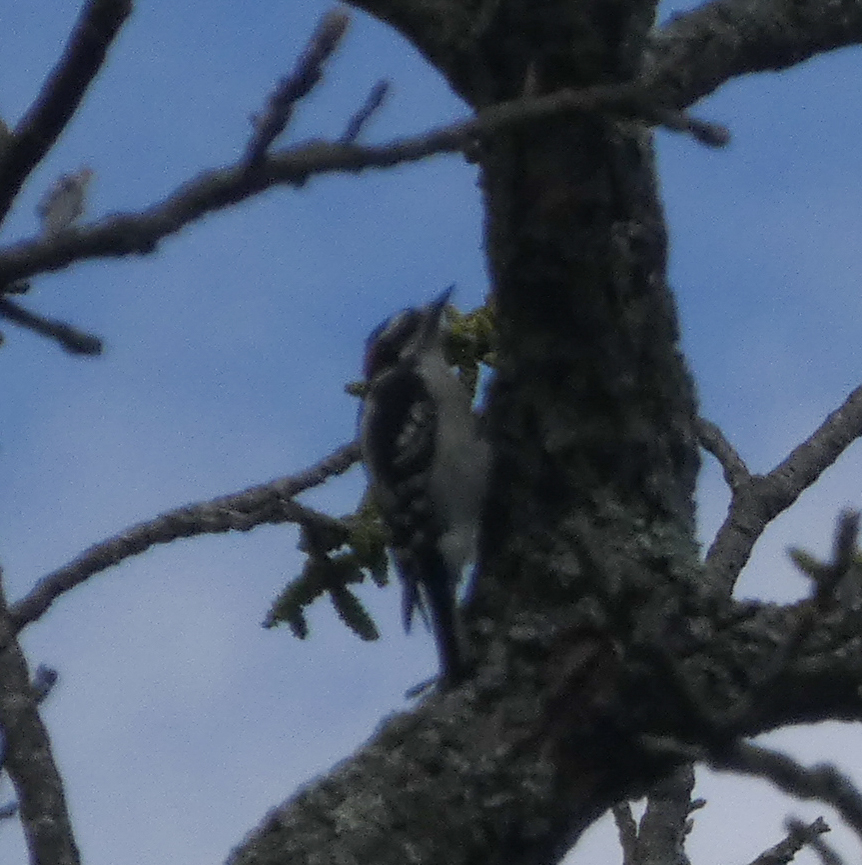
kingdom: Animalia
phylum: Chordata
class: Aves
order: Piciformes
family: Picidae
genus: Dryobates
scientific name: Dryobates pubescens
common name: Downy woodpecker
